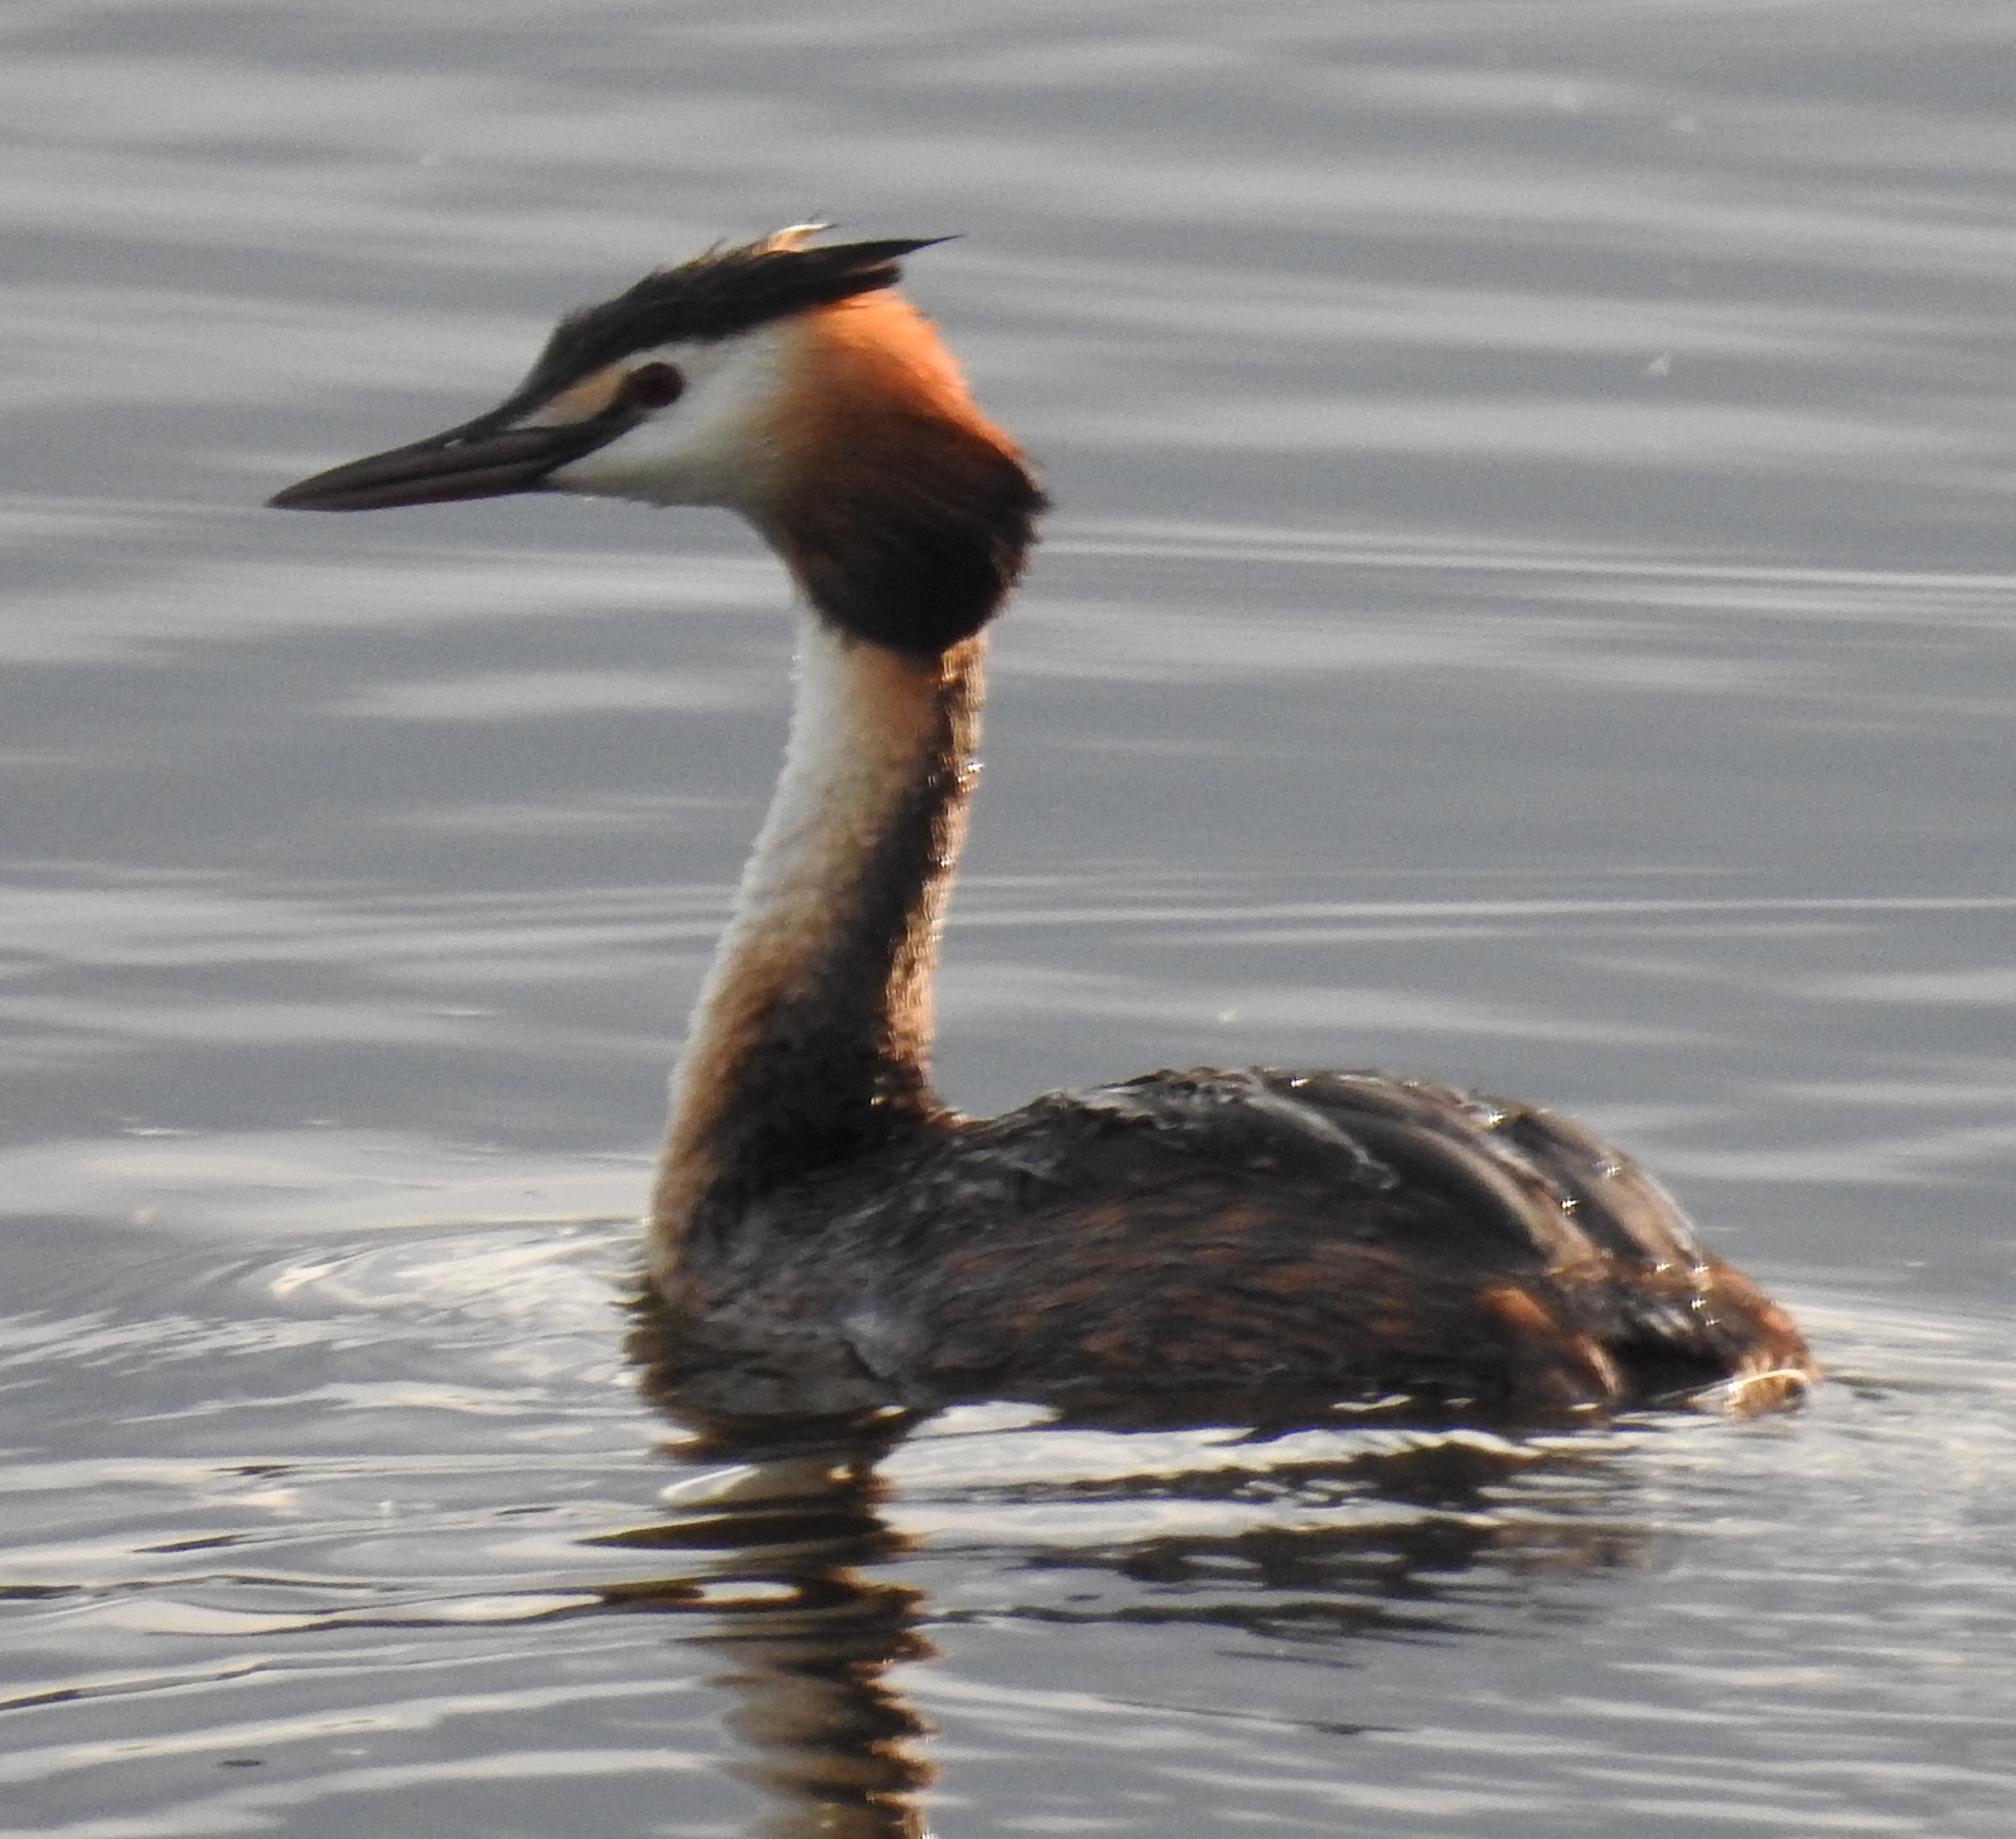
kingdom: Animalia
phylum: Chordata
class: Aves
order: Podicipediformes
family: Podicipedidae
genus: Podiceps
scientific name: Podiceps cristatus
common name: Great crested grebe
